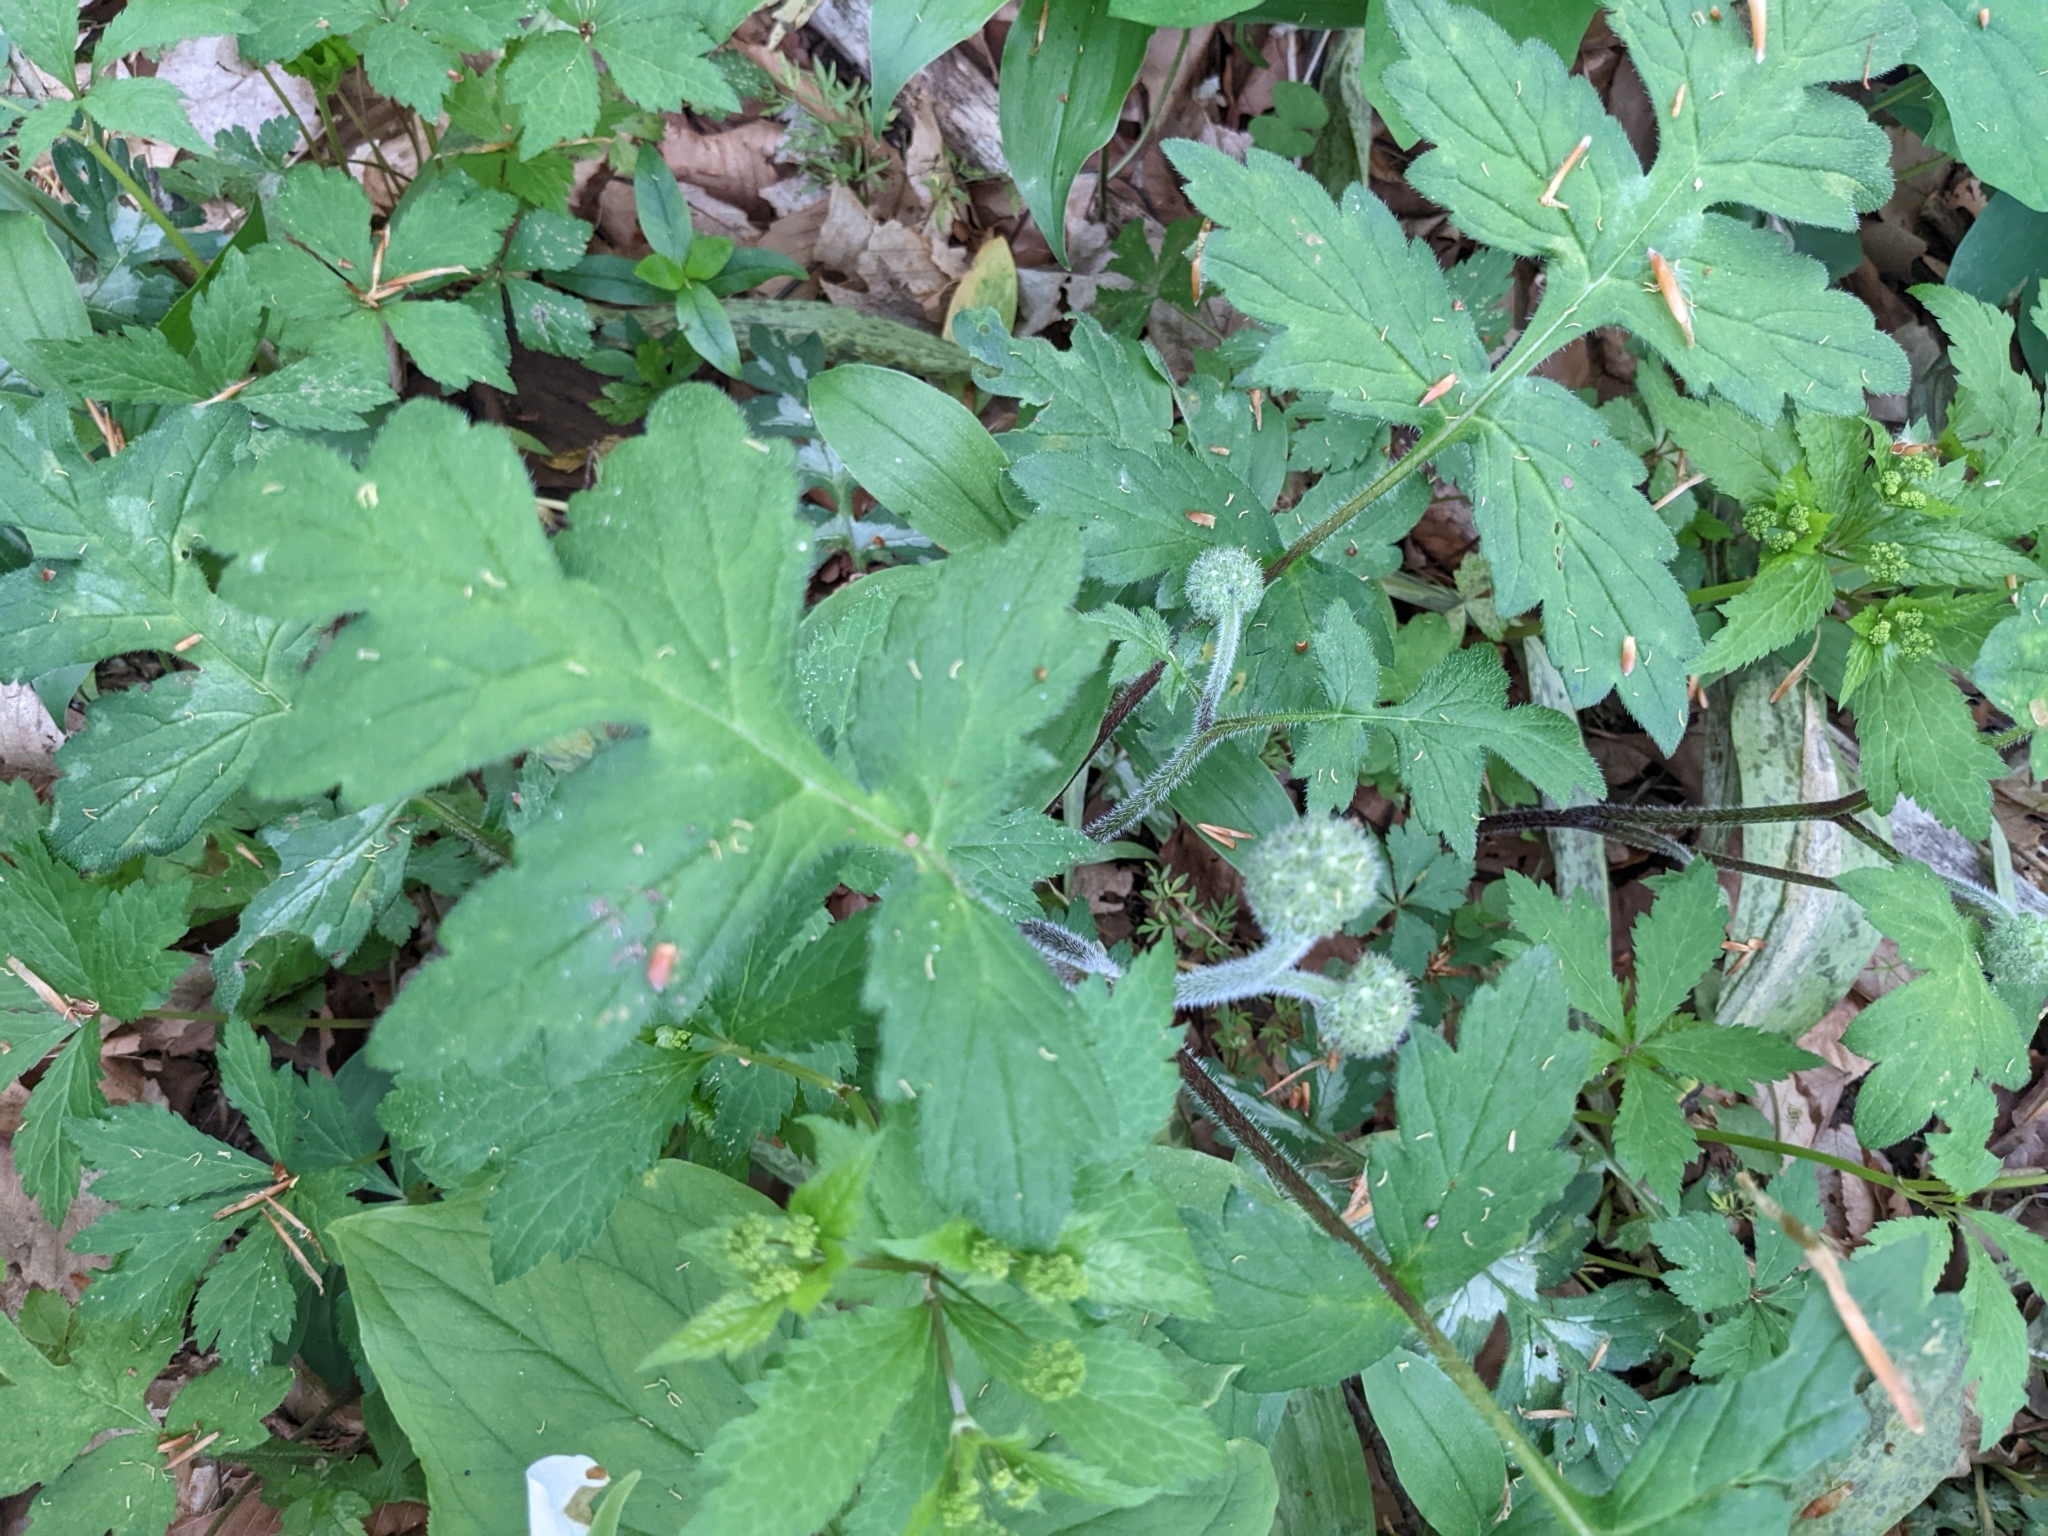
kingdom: Plantae
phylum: Tracheophyta
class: Magnoliopsida
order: Boraginales
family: Hydrophyllaceae
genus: Hydrophyllum
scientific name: Hydrophyllum macrophyllum
